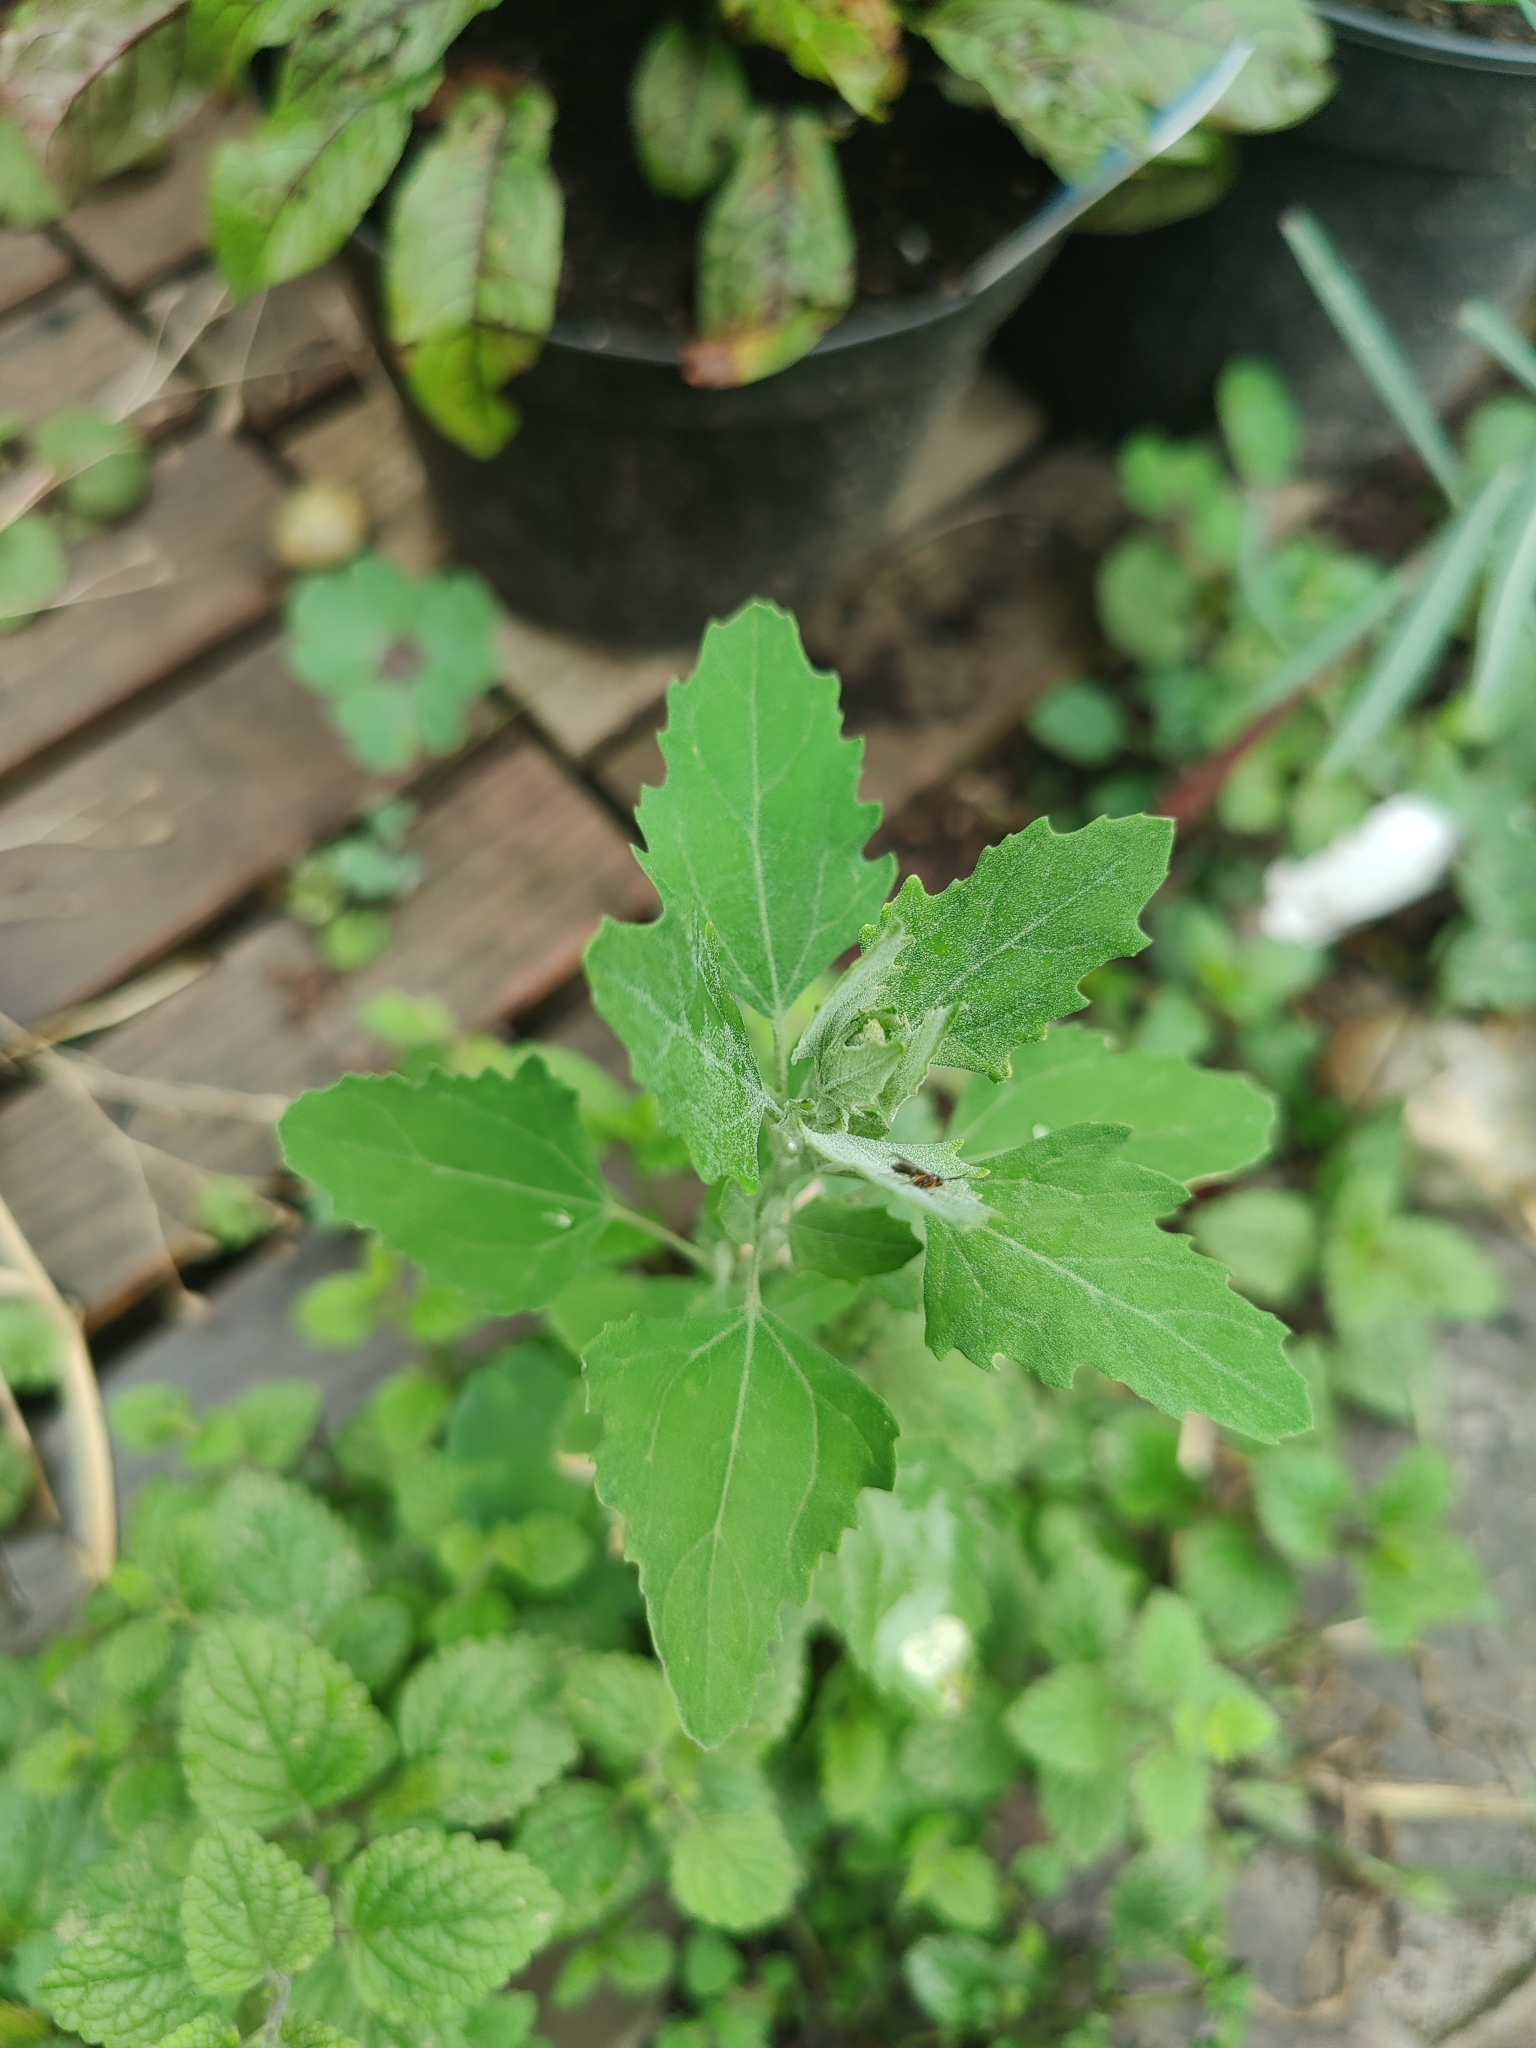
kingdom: Plantae
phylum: Tracheophyta
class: Magnoliopsida
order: Caryophyllales
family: Amaranthaceae
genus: Chenopodium
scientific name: Chenopodium album
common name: Fat-hen
